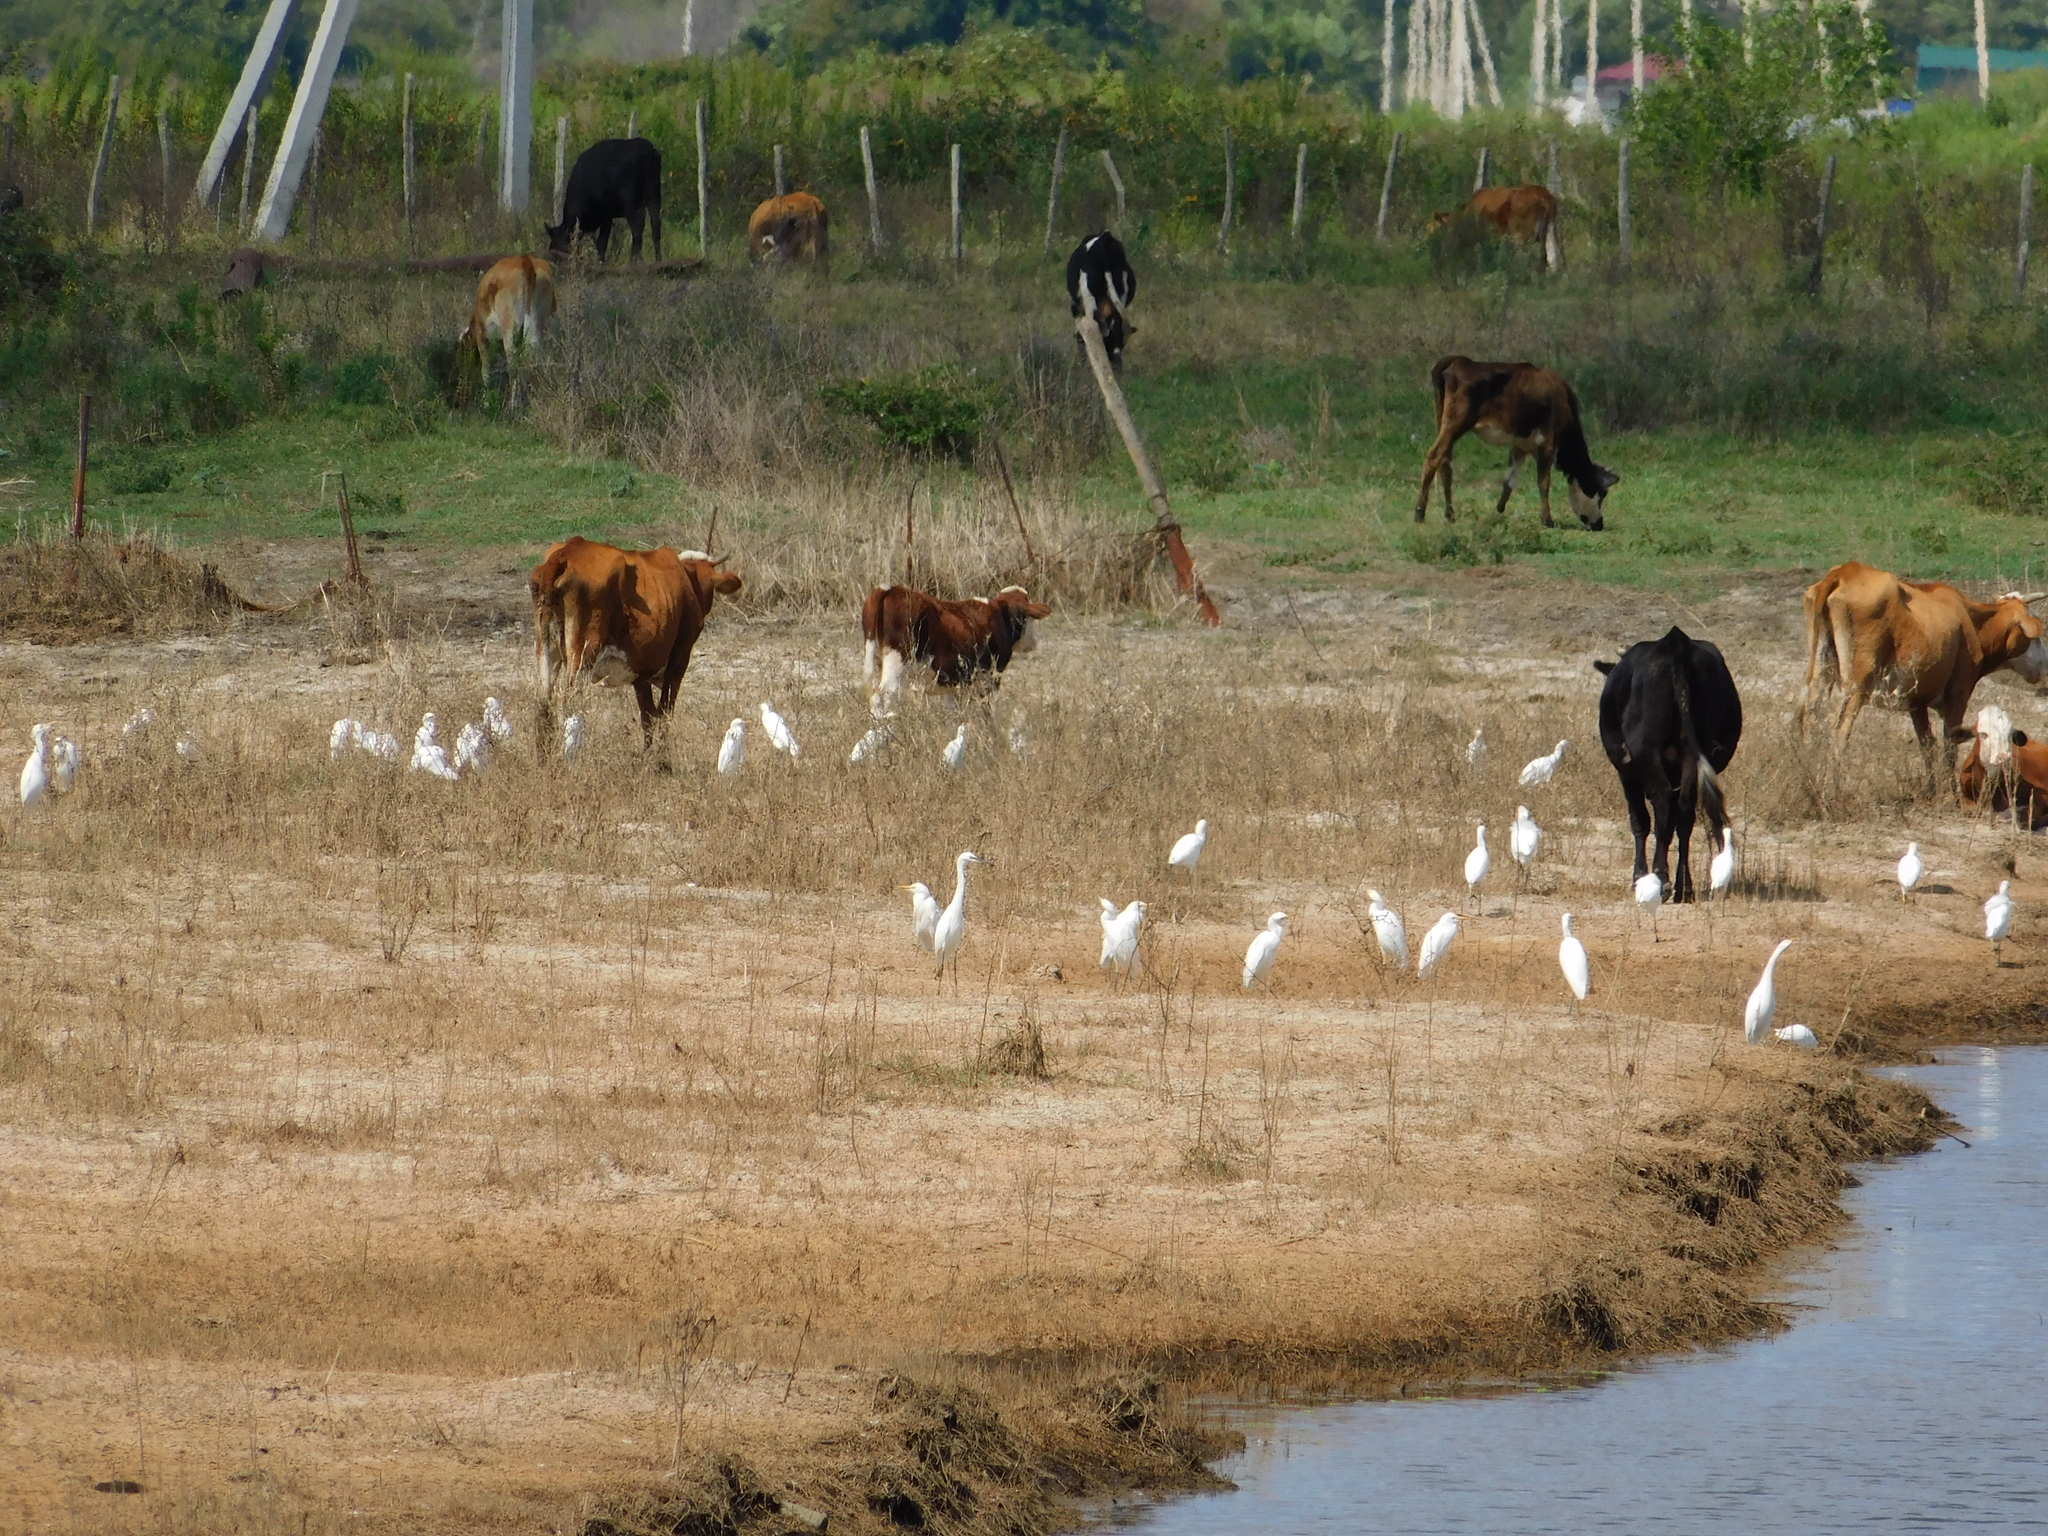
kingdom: Animalia
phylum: Chordata
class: Aves
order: Pelecaniformes
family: Ardeidae
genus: Bubulcus
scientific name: Bubulcus ibis
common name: Cattle egret
